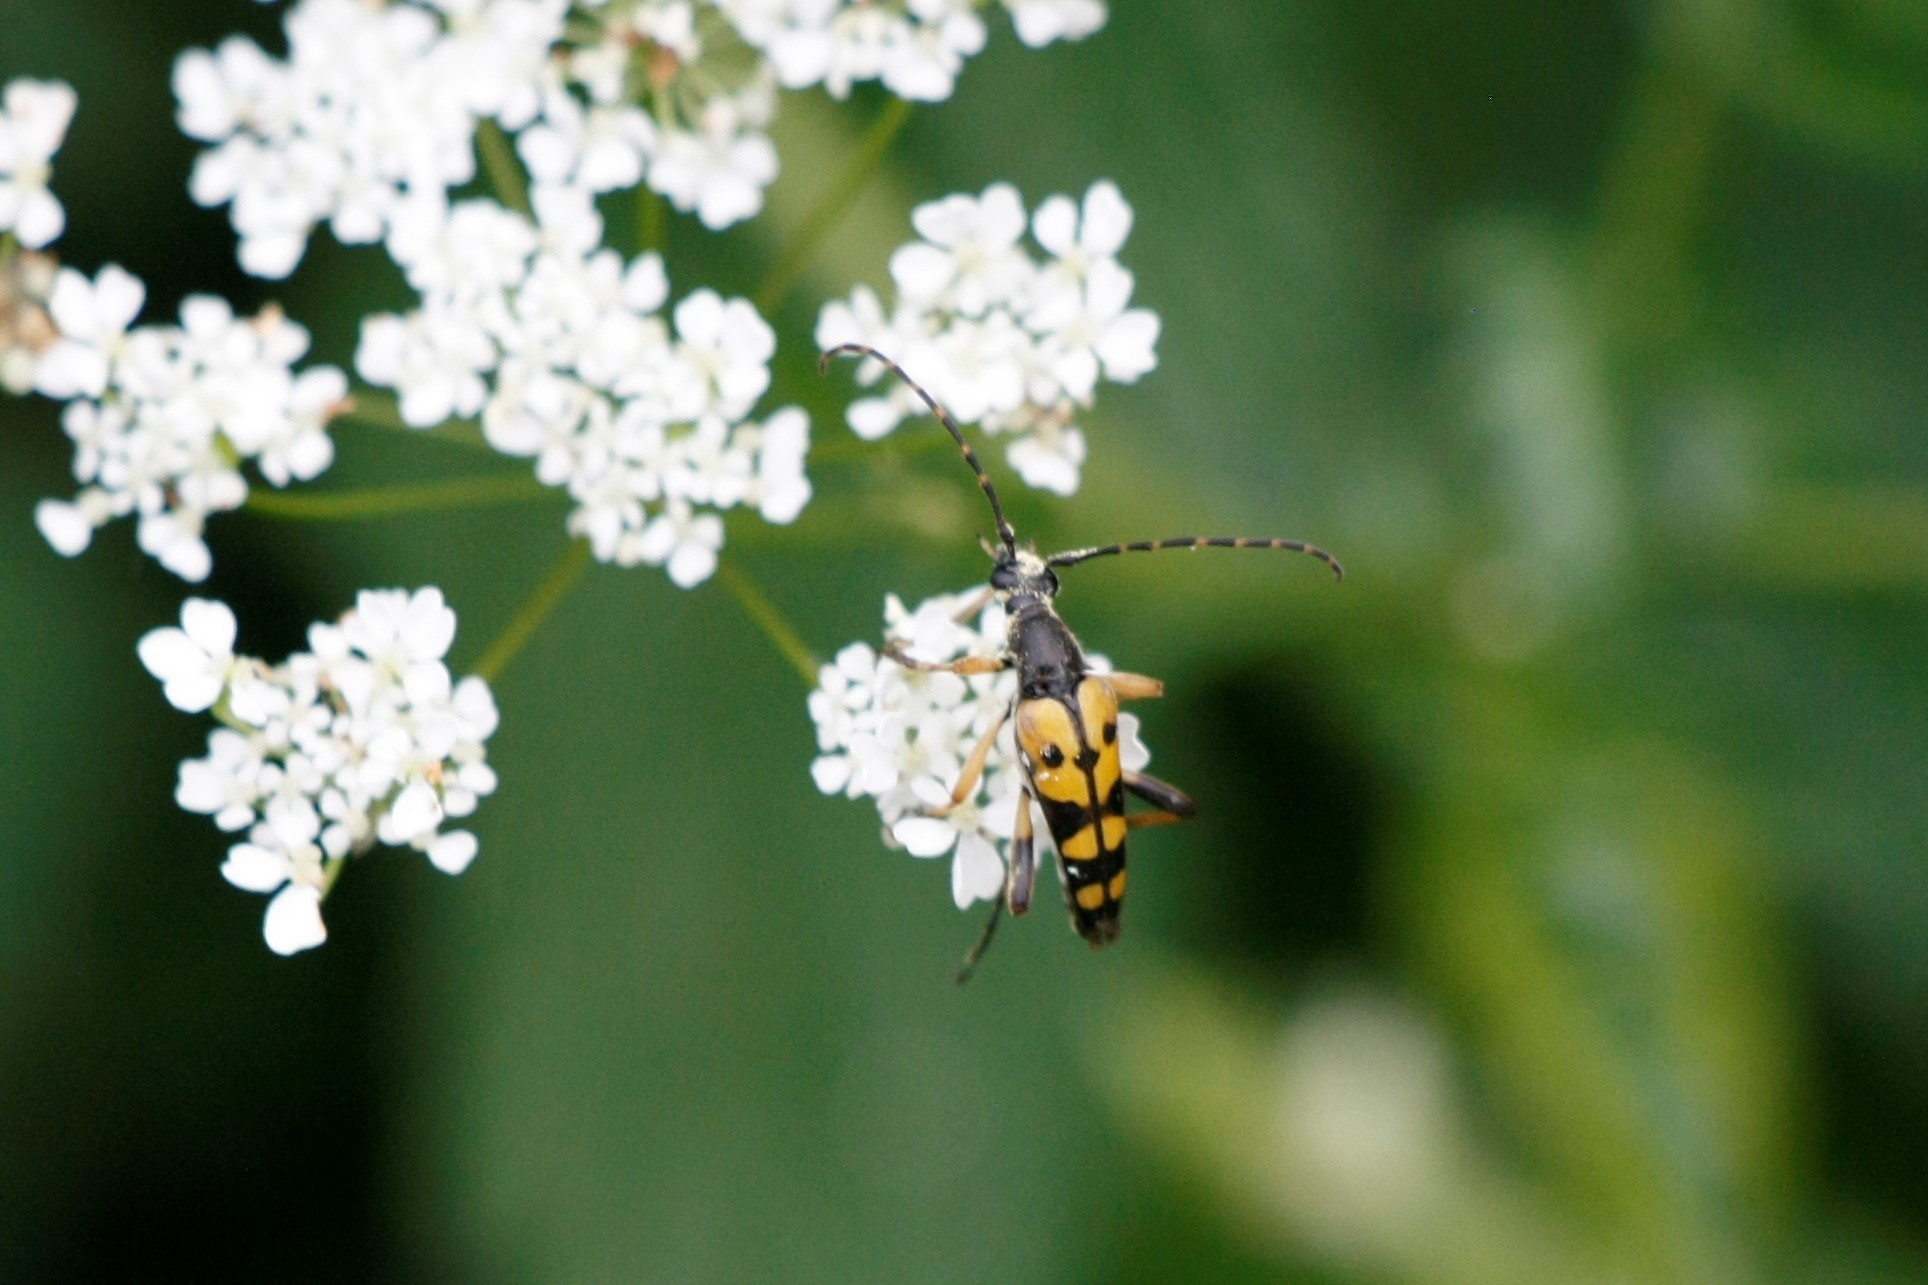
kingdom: Animalia
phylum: Arthropoda
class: Insecta
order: Coleoptera
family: Cerambycidae
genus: Rutpela
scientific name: Rutpela maculata
